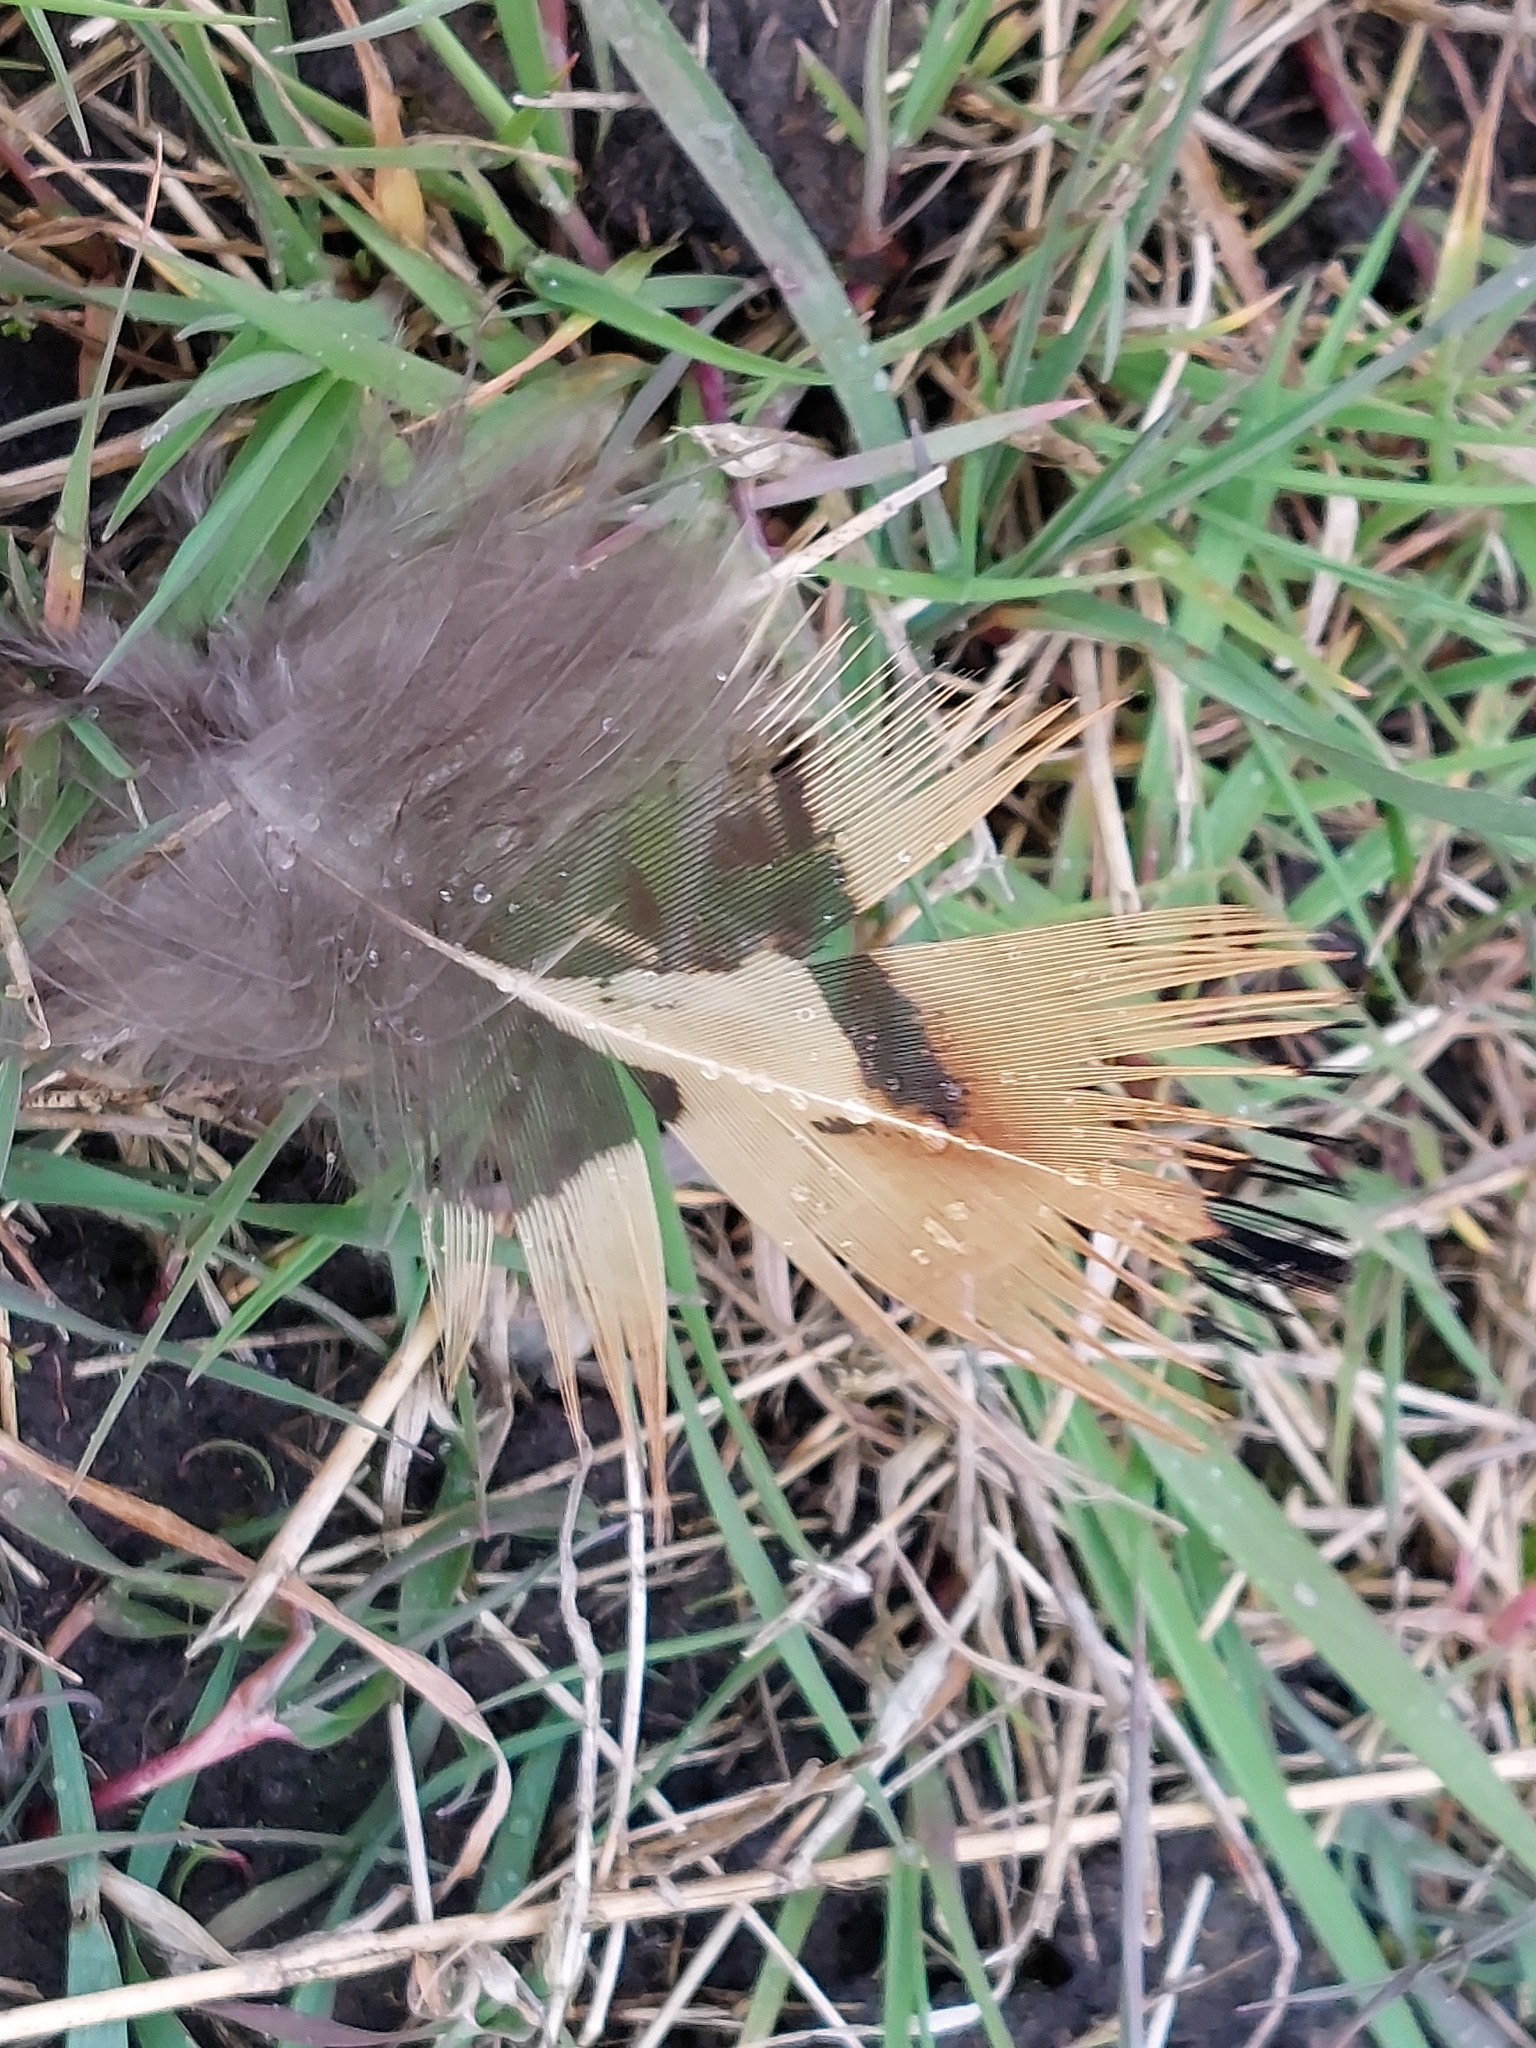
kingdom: Animalia
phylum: Chordata
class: Aves
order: Galliformes
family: Phasianidae
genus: Phasianus
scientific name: Phasianus colchicus
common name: Common pheasant
